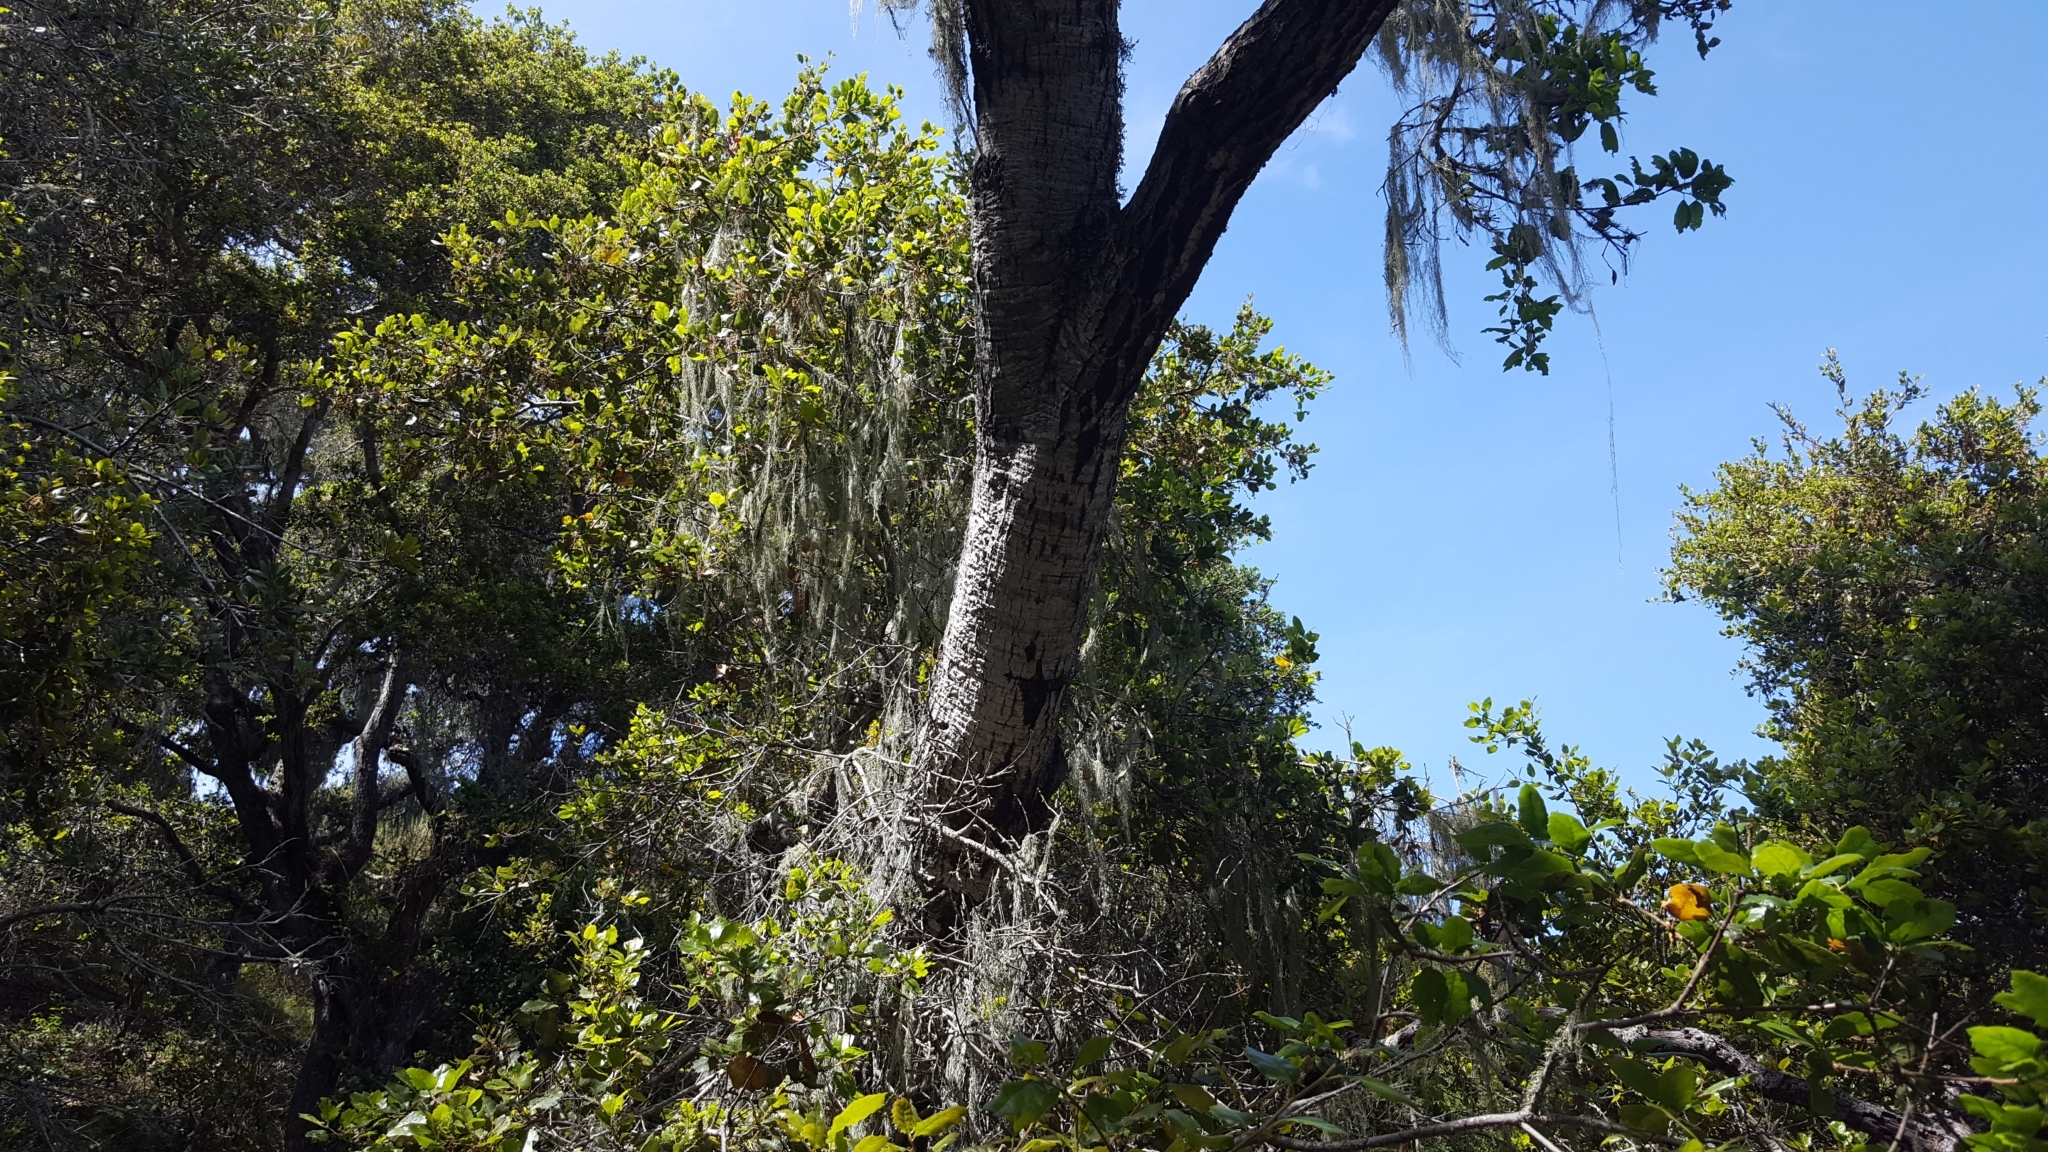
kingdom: Fungi
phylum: Ascomycota
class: Lecanoromycetes
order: Lecanorales
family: Ramalinaceae
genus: Ramalina
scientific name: Ramalina menziesii
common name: Lace lichen
